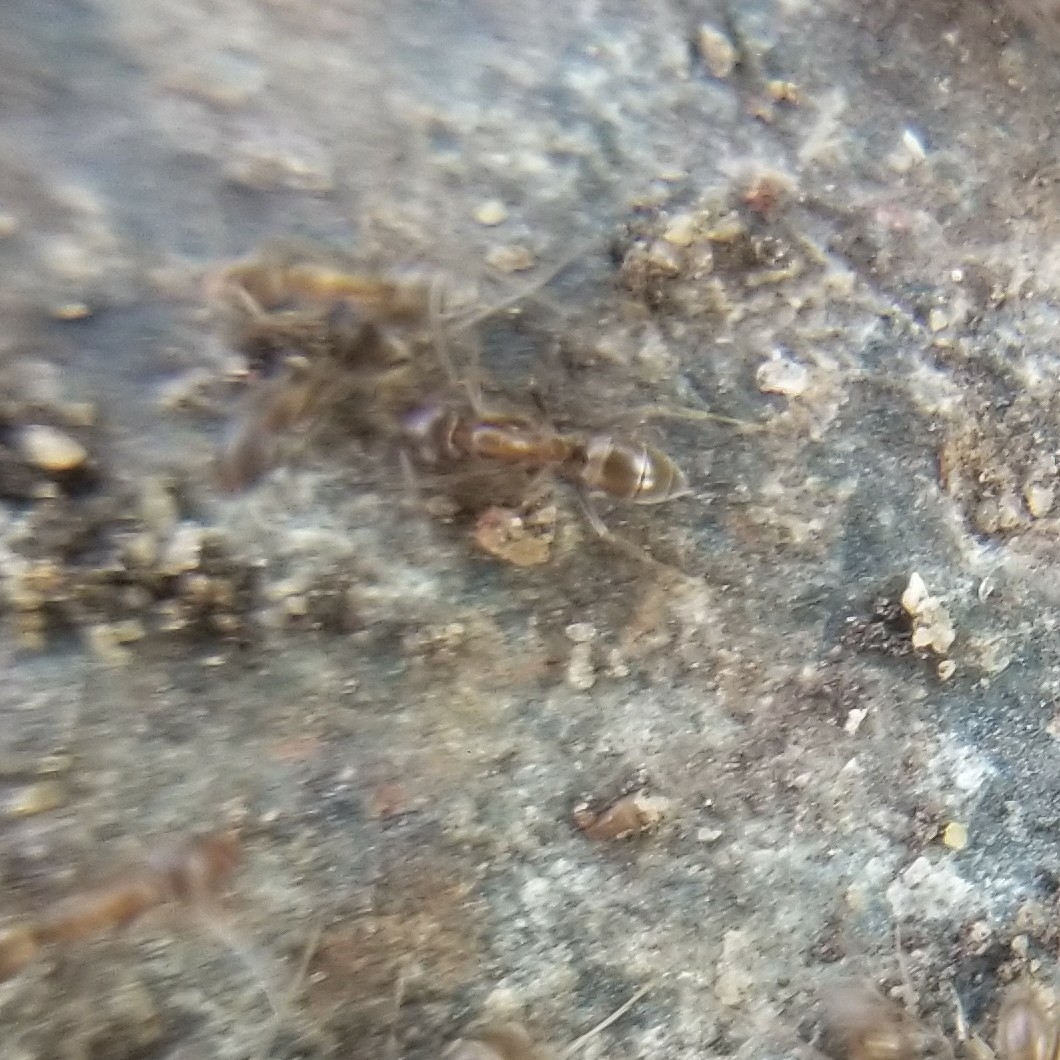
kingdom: Animalia
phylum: Arthropoda
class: Insecta
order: Hymenoptera
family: Formicidae
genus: Linepithema
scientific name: Linepithema humile
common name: Argentine ant
